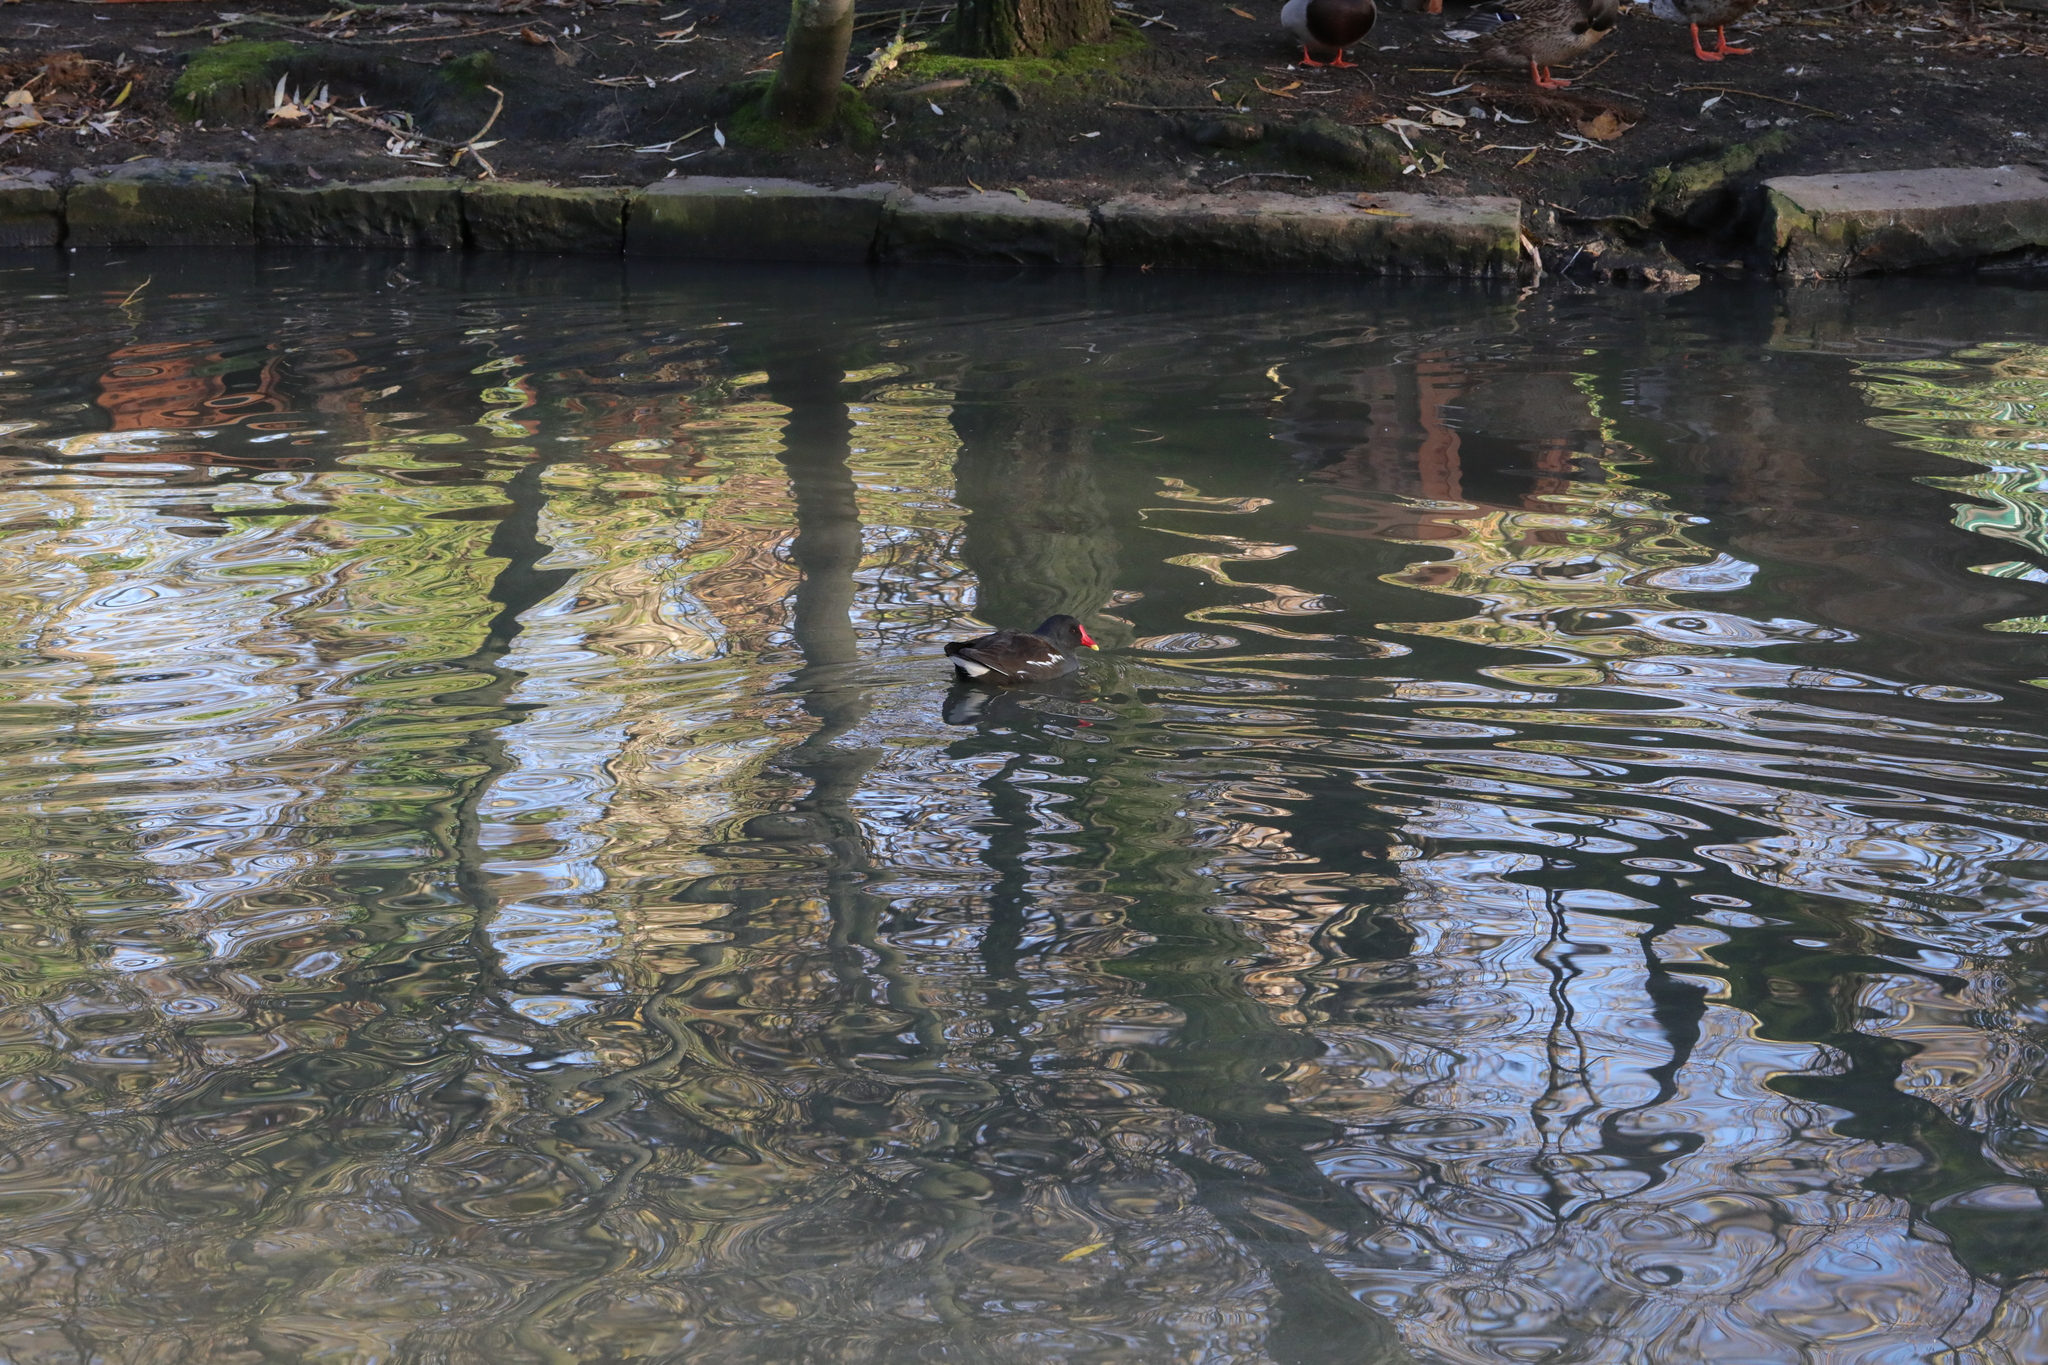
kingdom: Animalia
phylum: Chordata
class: Aves
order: Gruiformes
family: Rallidae
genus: Gallinula
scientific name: Gallinula chloropus
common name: Common moorhen
